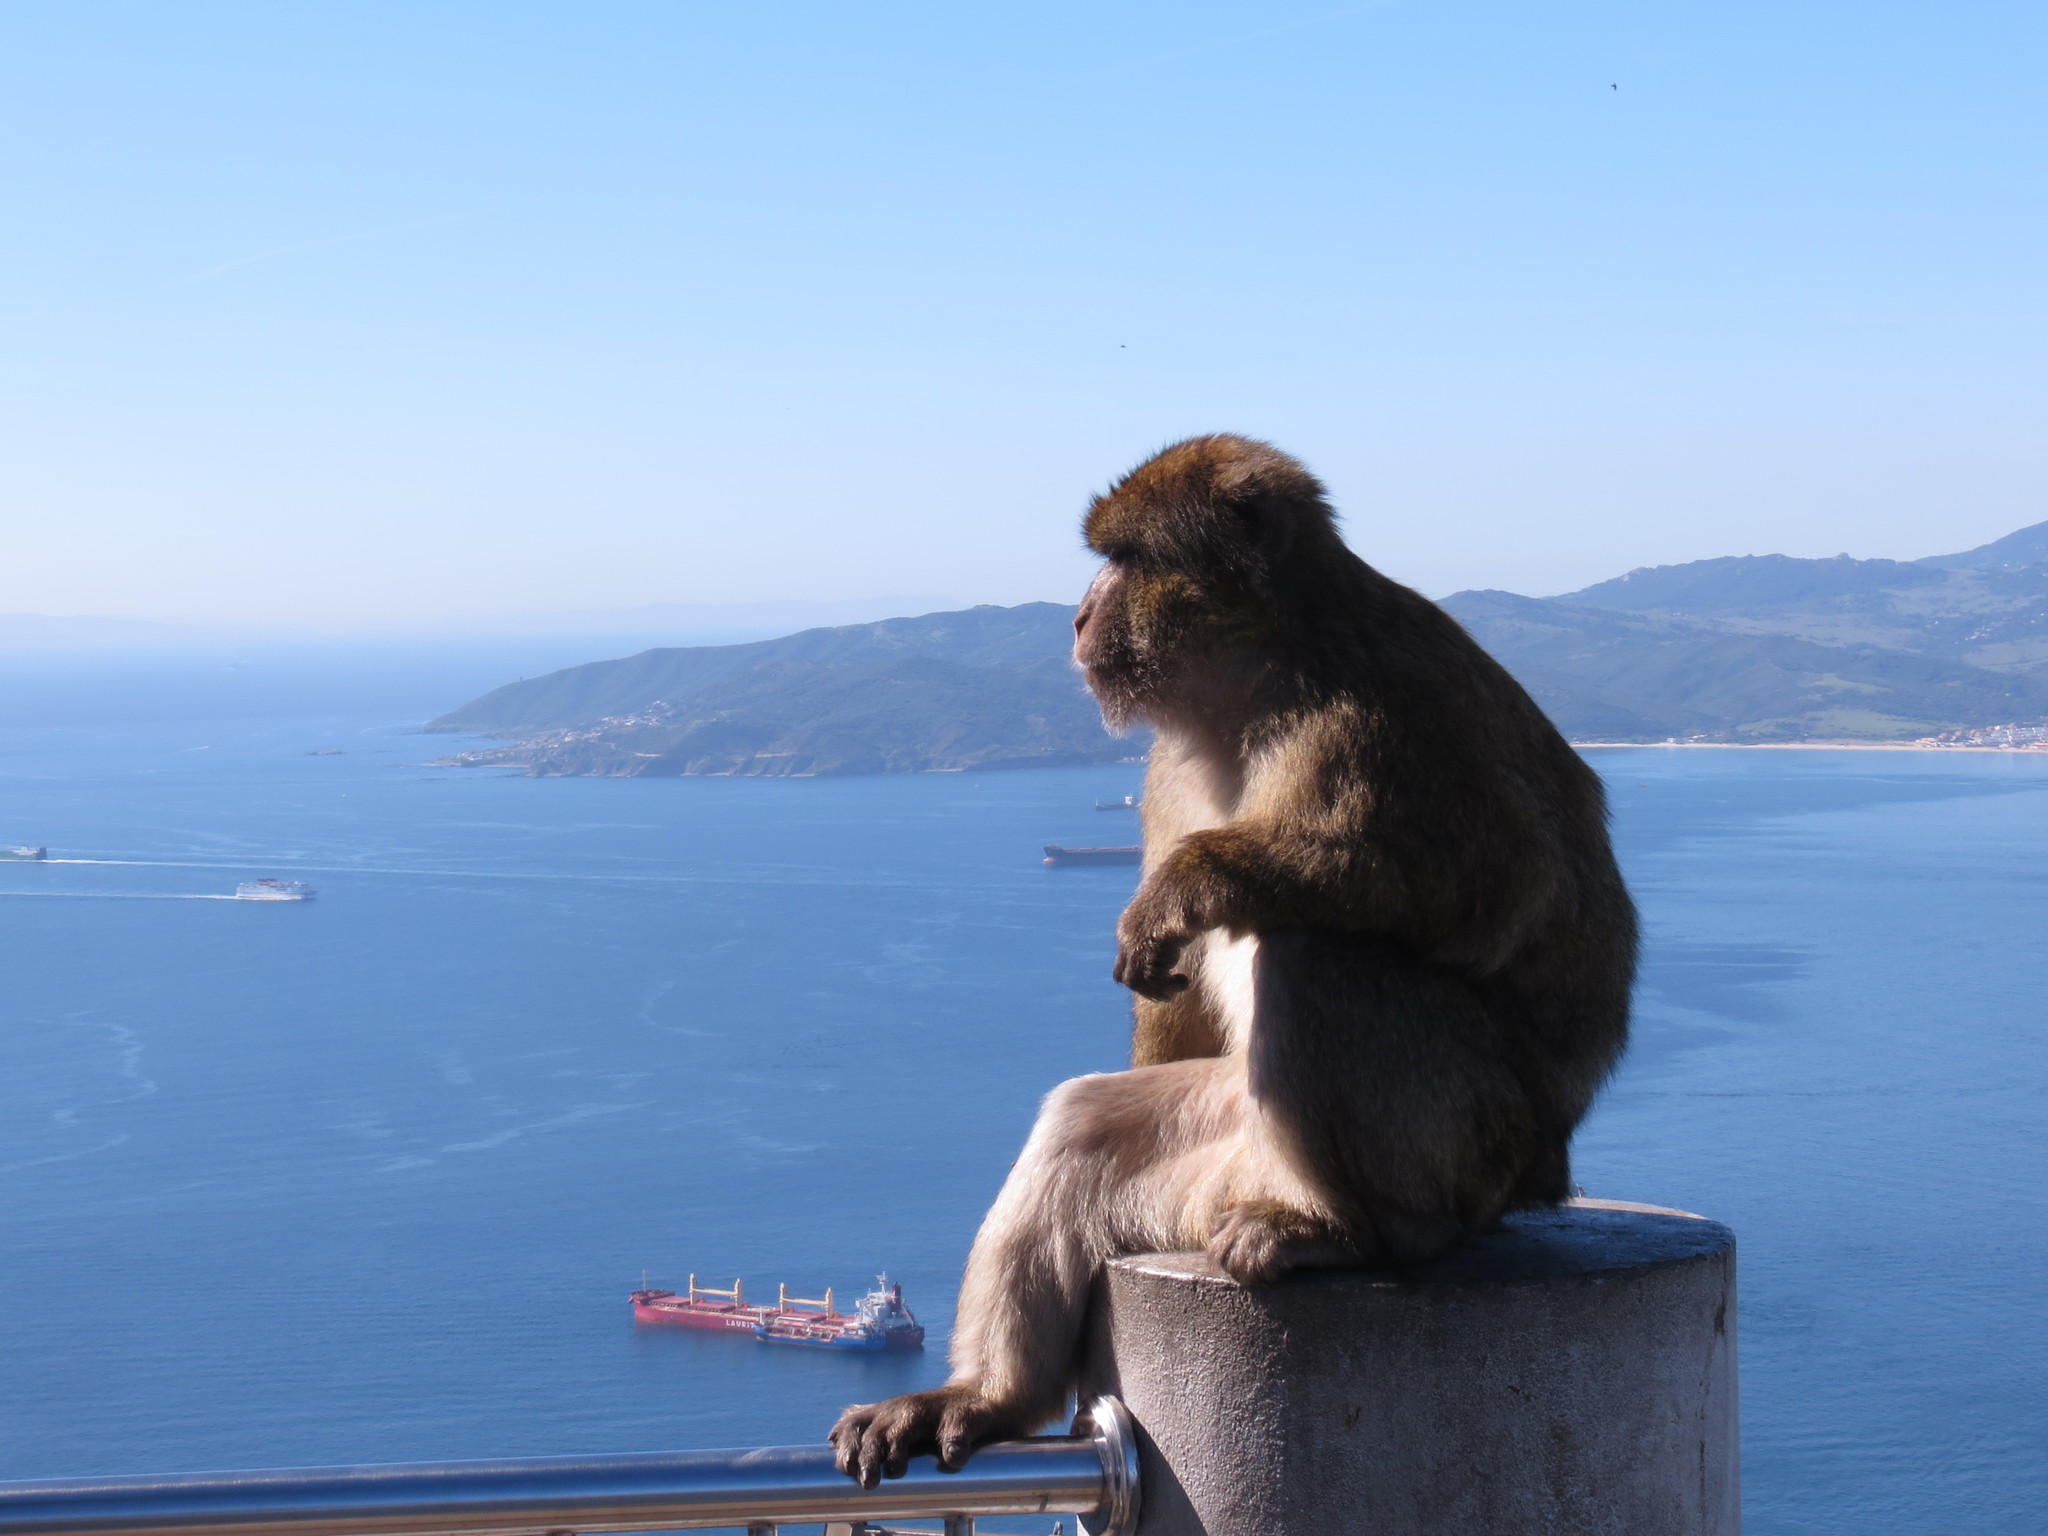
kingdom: Animalia
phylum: Chordata
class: Mammalia
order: Primates
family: Cercopithecidae
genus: Macaca
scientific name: Macaca sylvanus
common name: Barbary macaque
